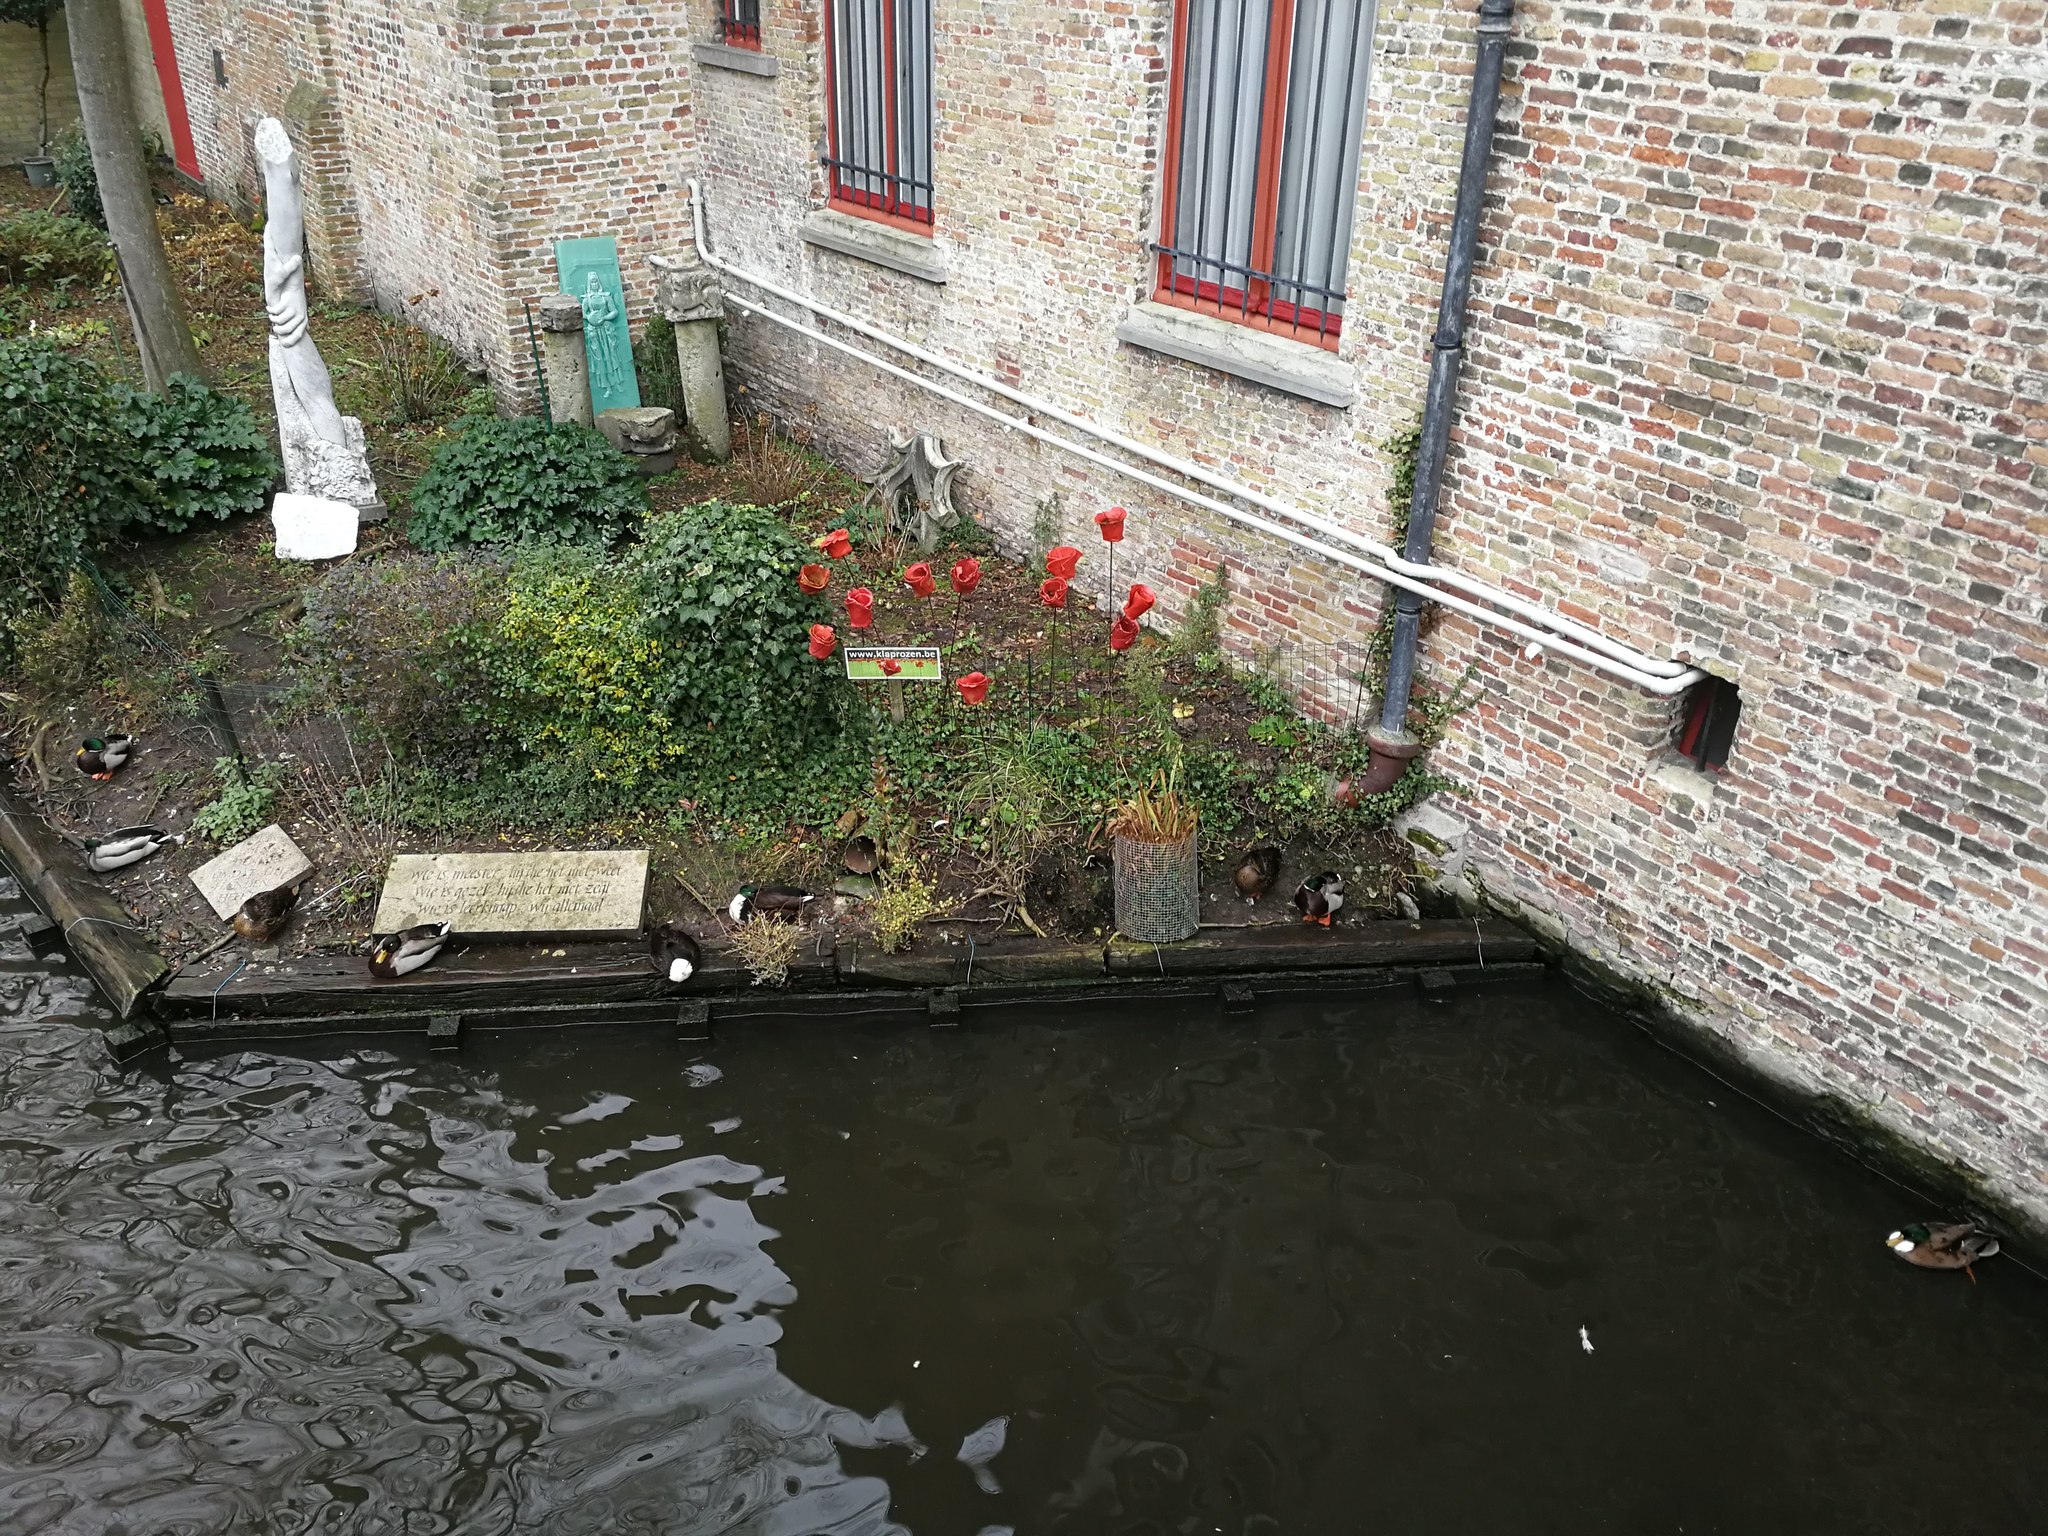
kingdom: Animalia
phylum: Chordata
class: Aves
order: Anseriformes
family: Anatidae
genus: Anas
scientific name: Anas platyrhynchos
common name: Mallard
